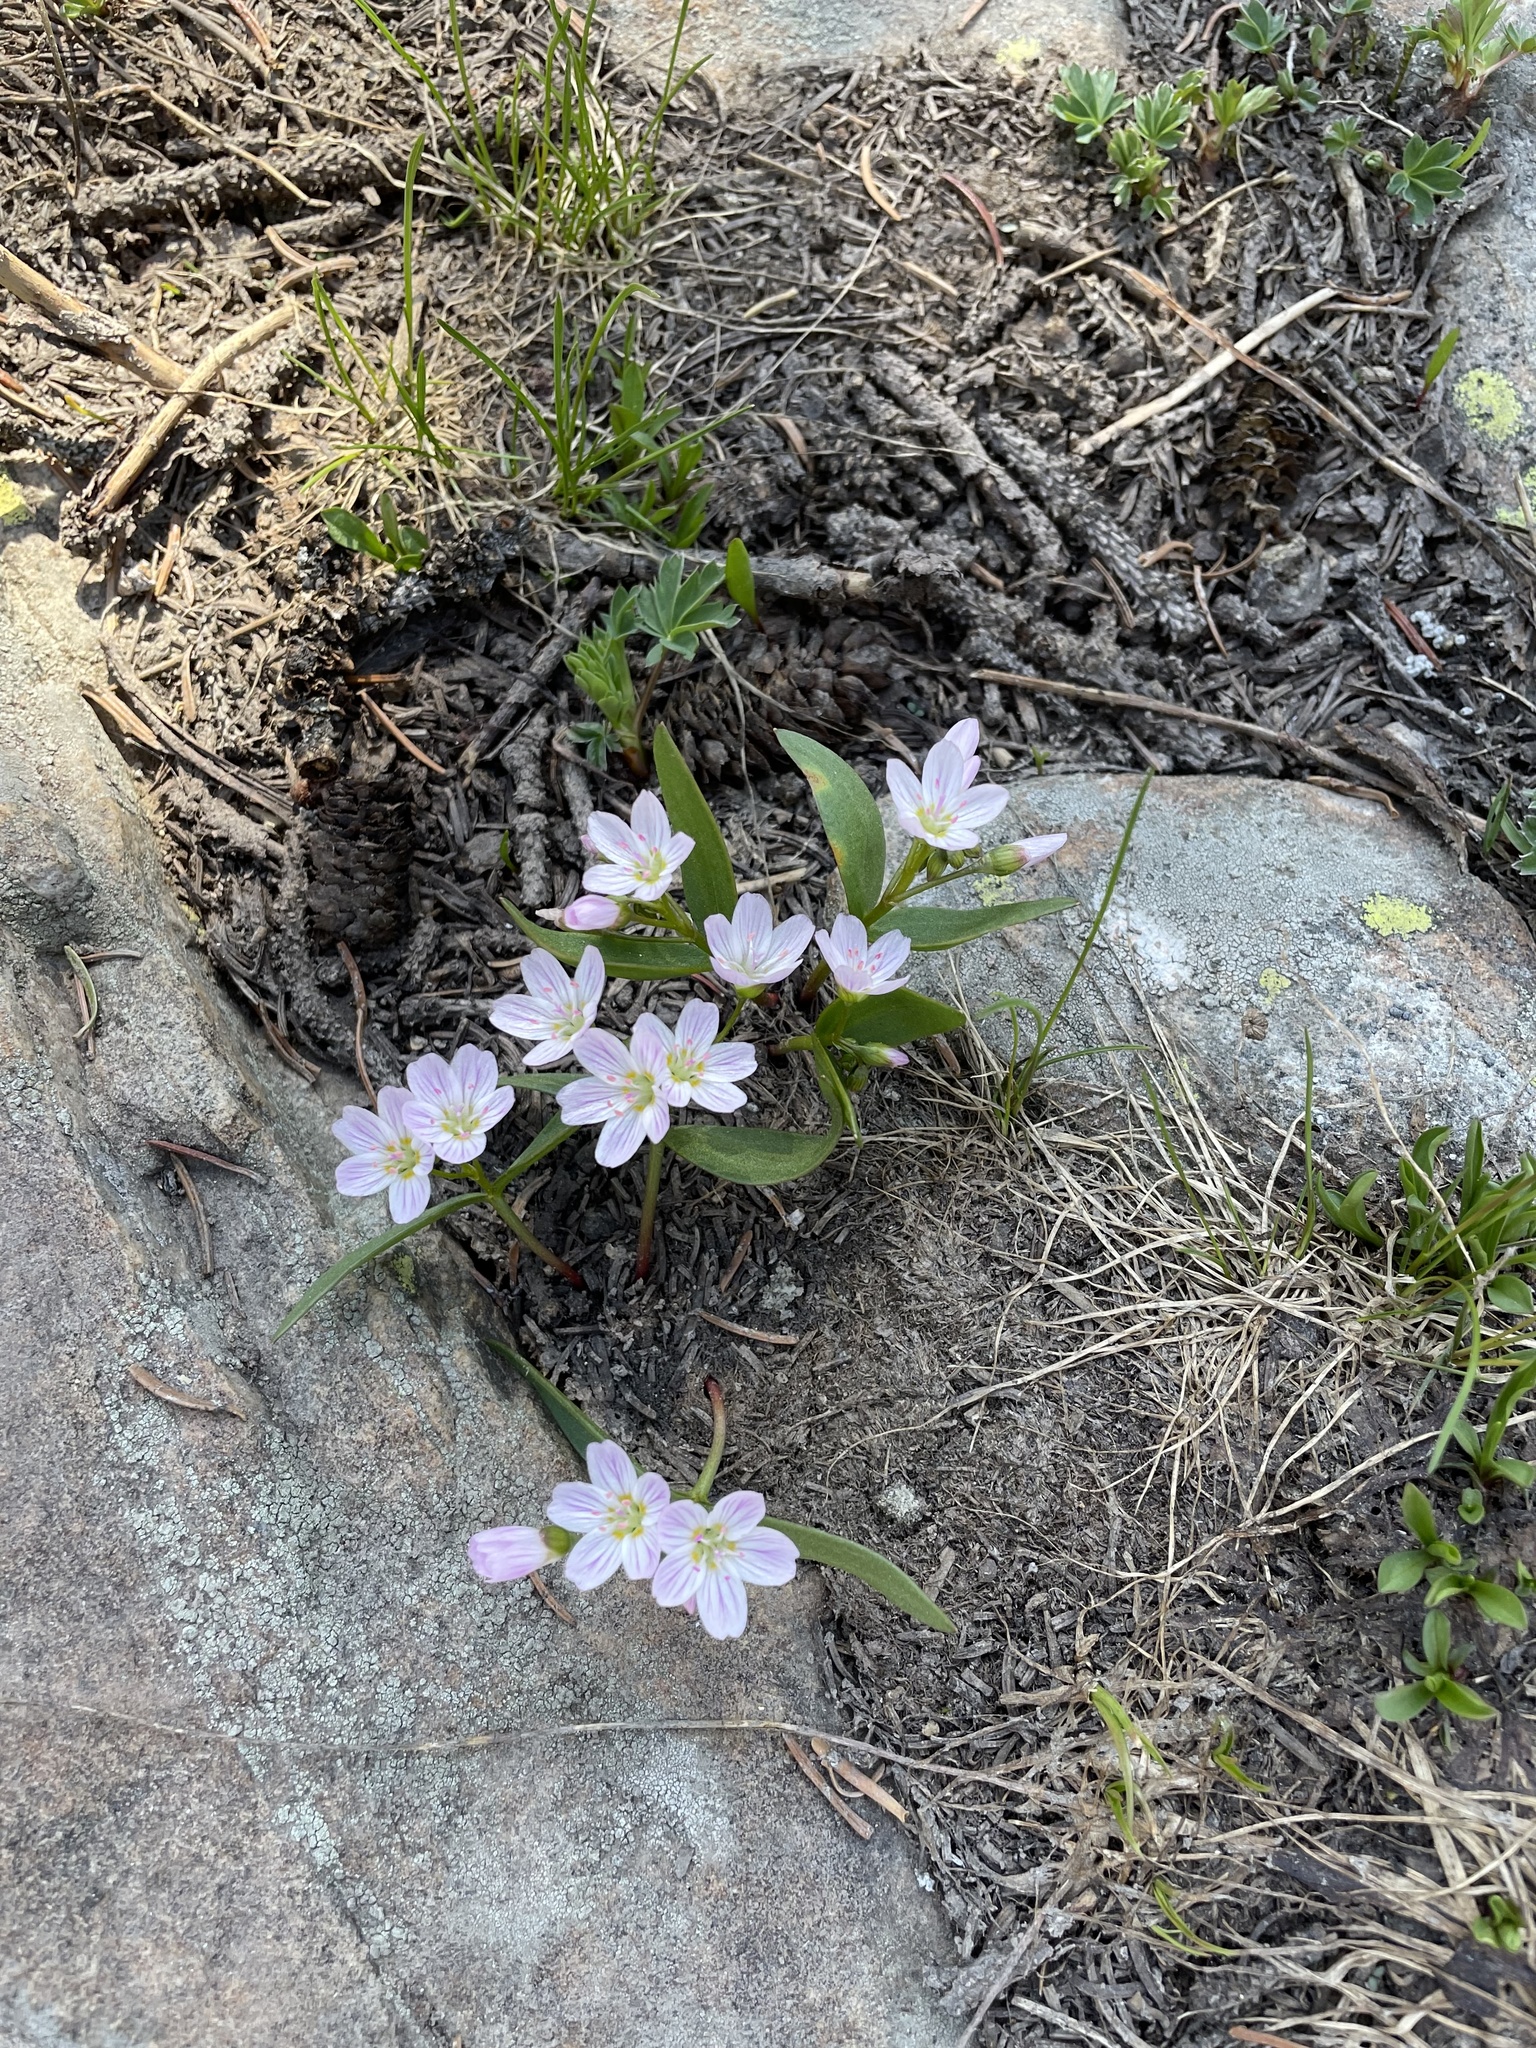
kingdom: Plantae
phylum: Tracheophyta
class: Magnoliopsida
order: Caryophyllales
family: Montiaceae
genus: Claytonia
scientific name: Claytonia lanceolata
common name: Western spring-beauty
